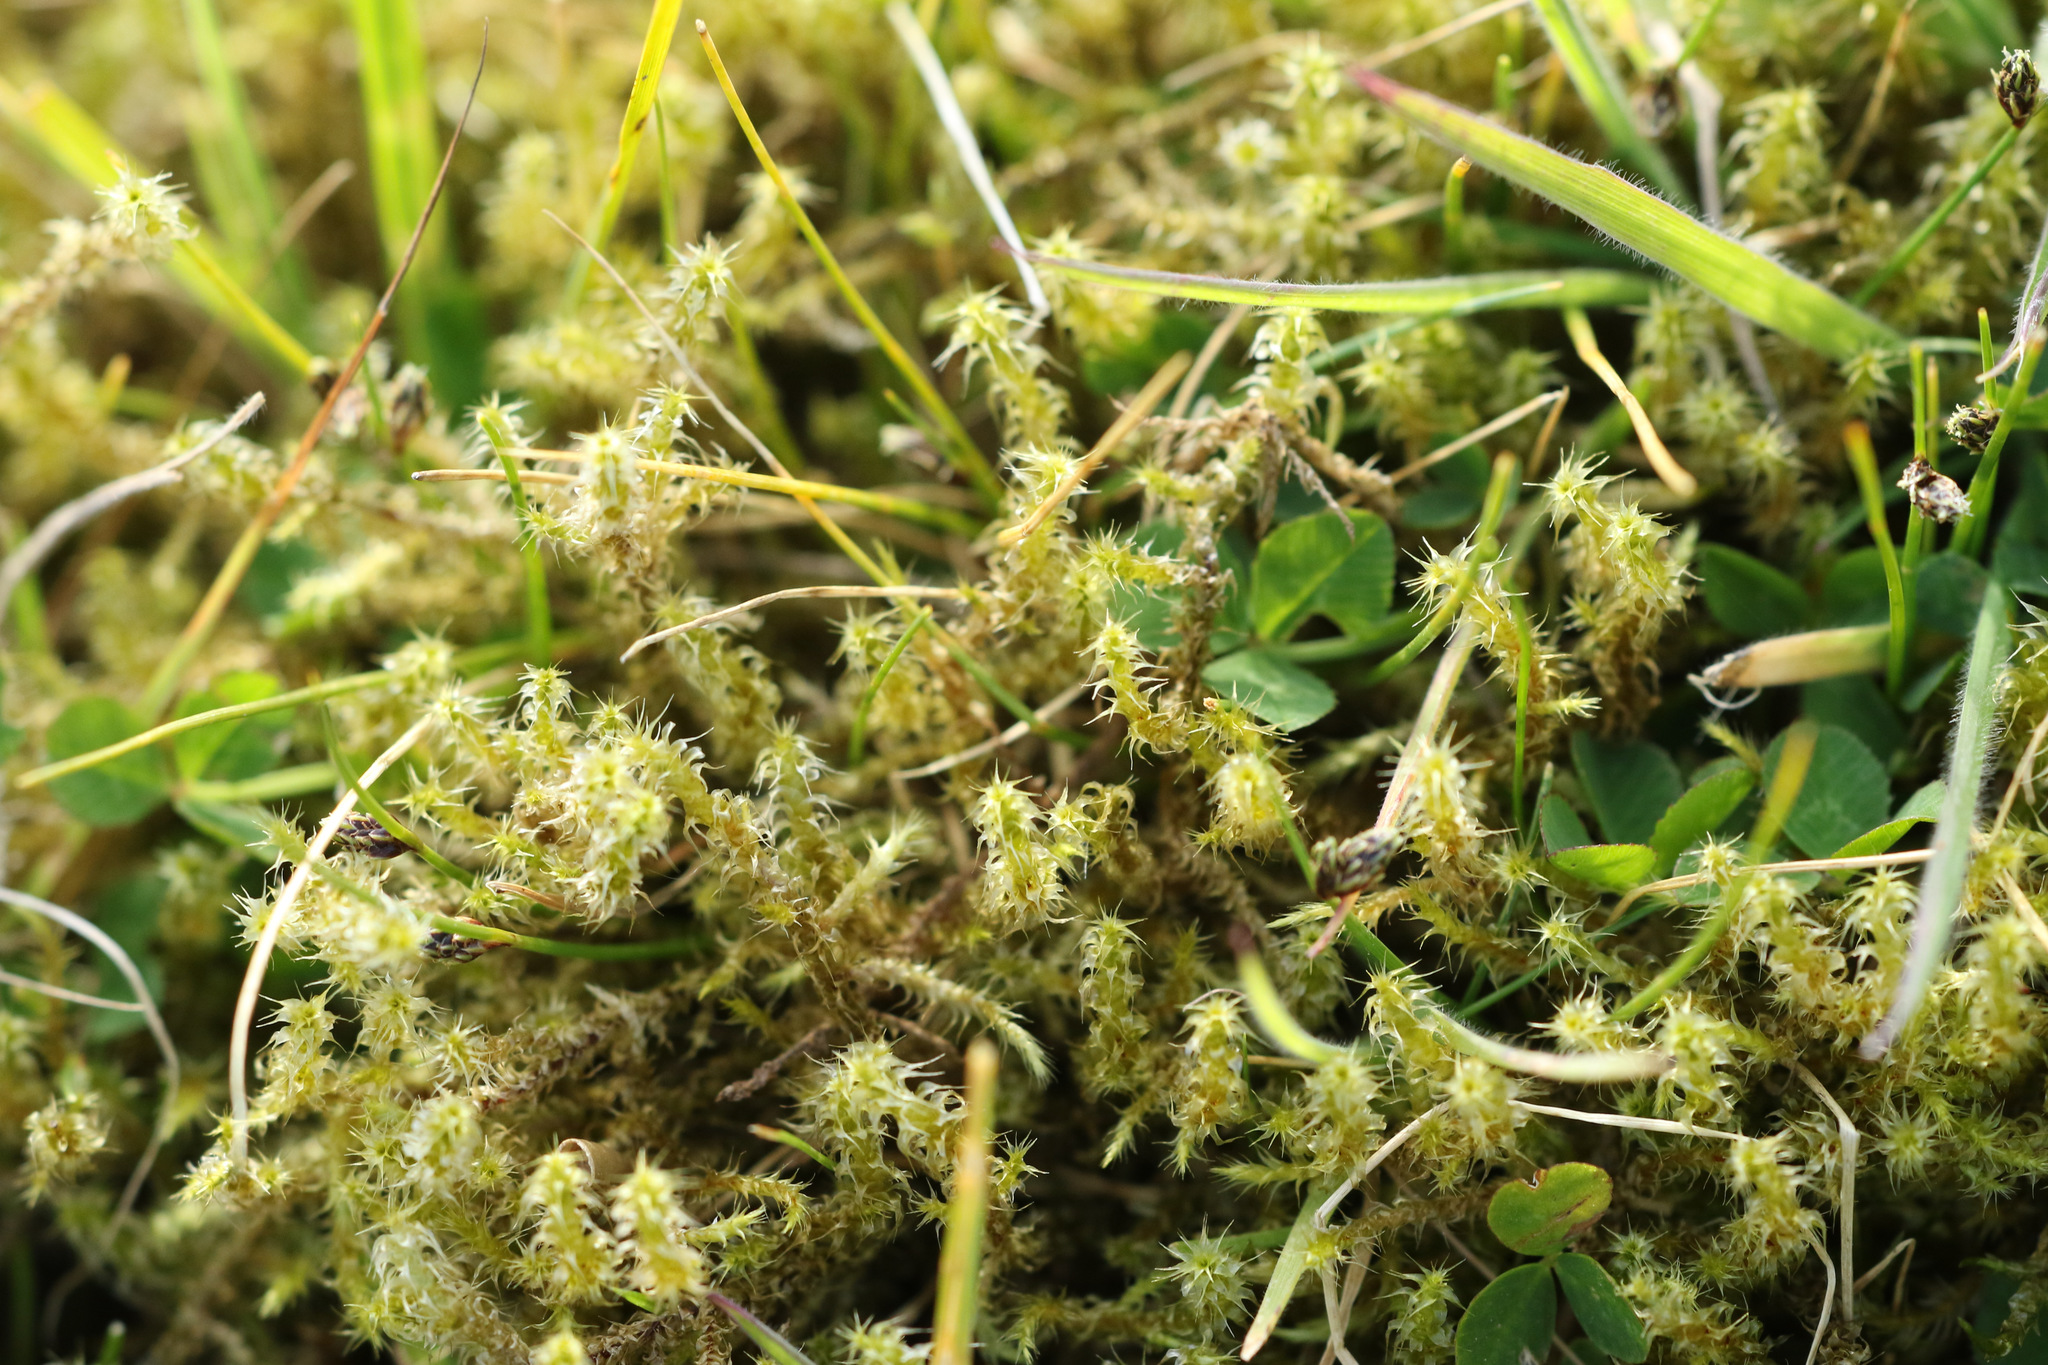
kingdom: Plantae
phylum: Bryophyta
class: Bryopsida
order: Hypnales
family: Hylocomiaceae
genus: Rhytidiadelphus
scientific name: Rhytidiadelphus squarrosus
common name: Springy turf-moss
